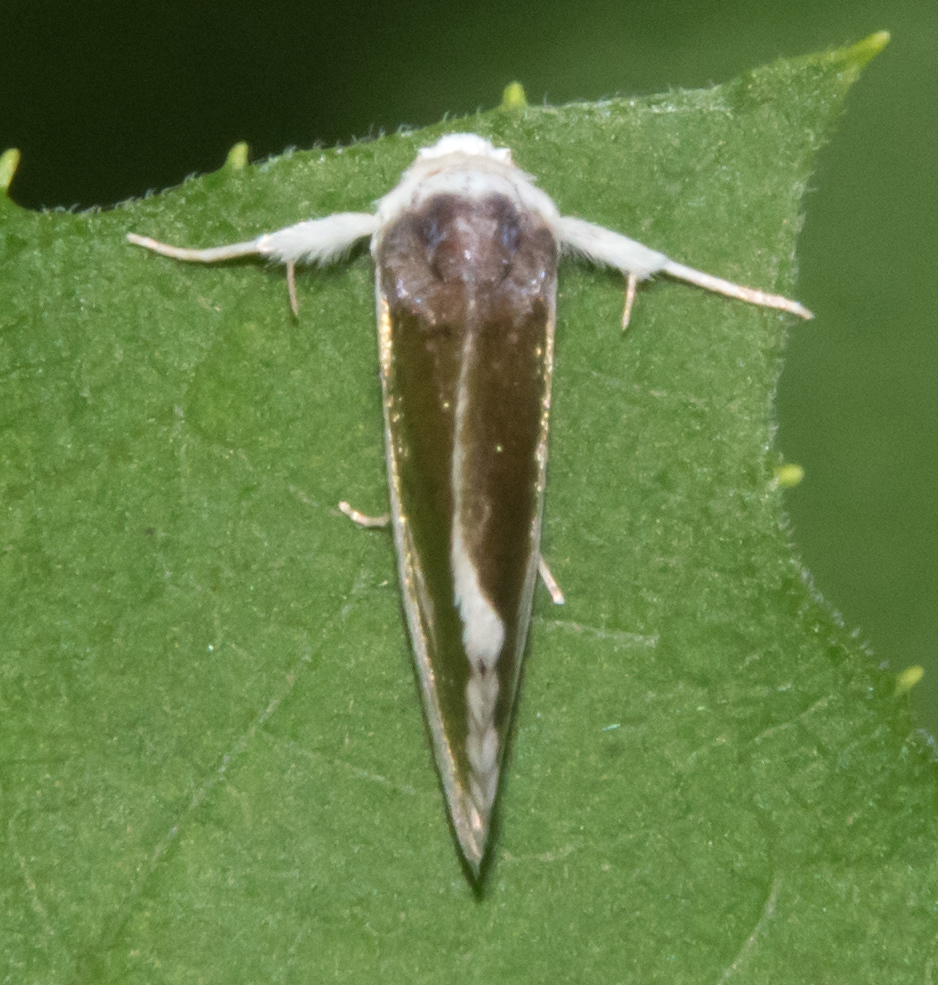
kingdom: Animalia
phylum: Arthropoda
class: Insecta
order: Lepidoptera
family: Noctuidae
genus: Neumoegenia
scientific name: Neumoegenia poetica
